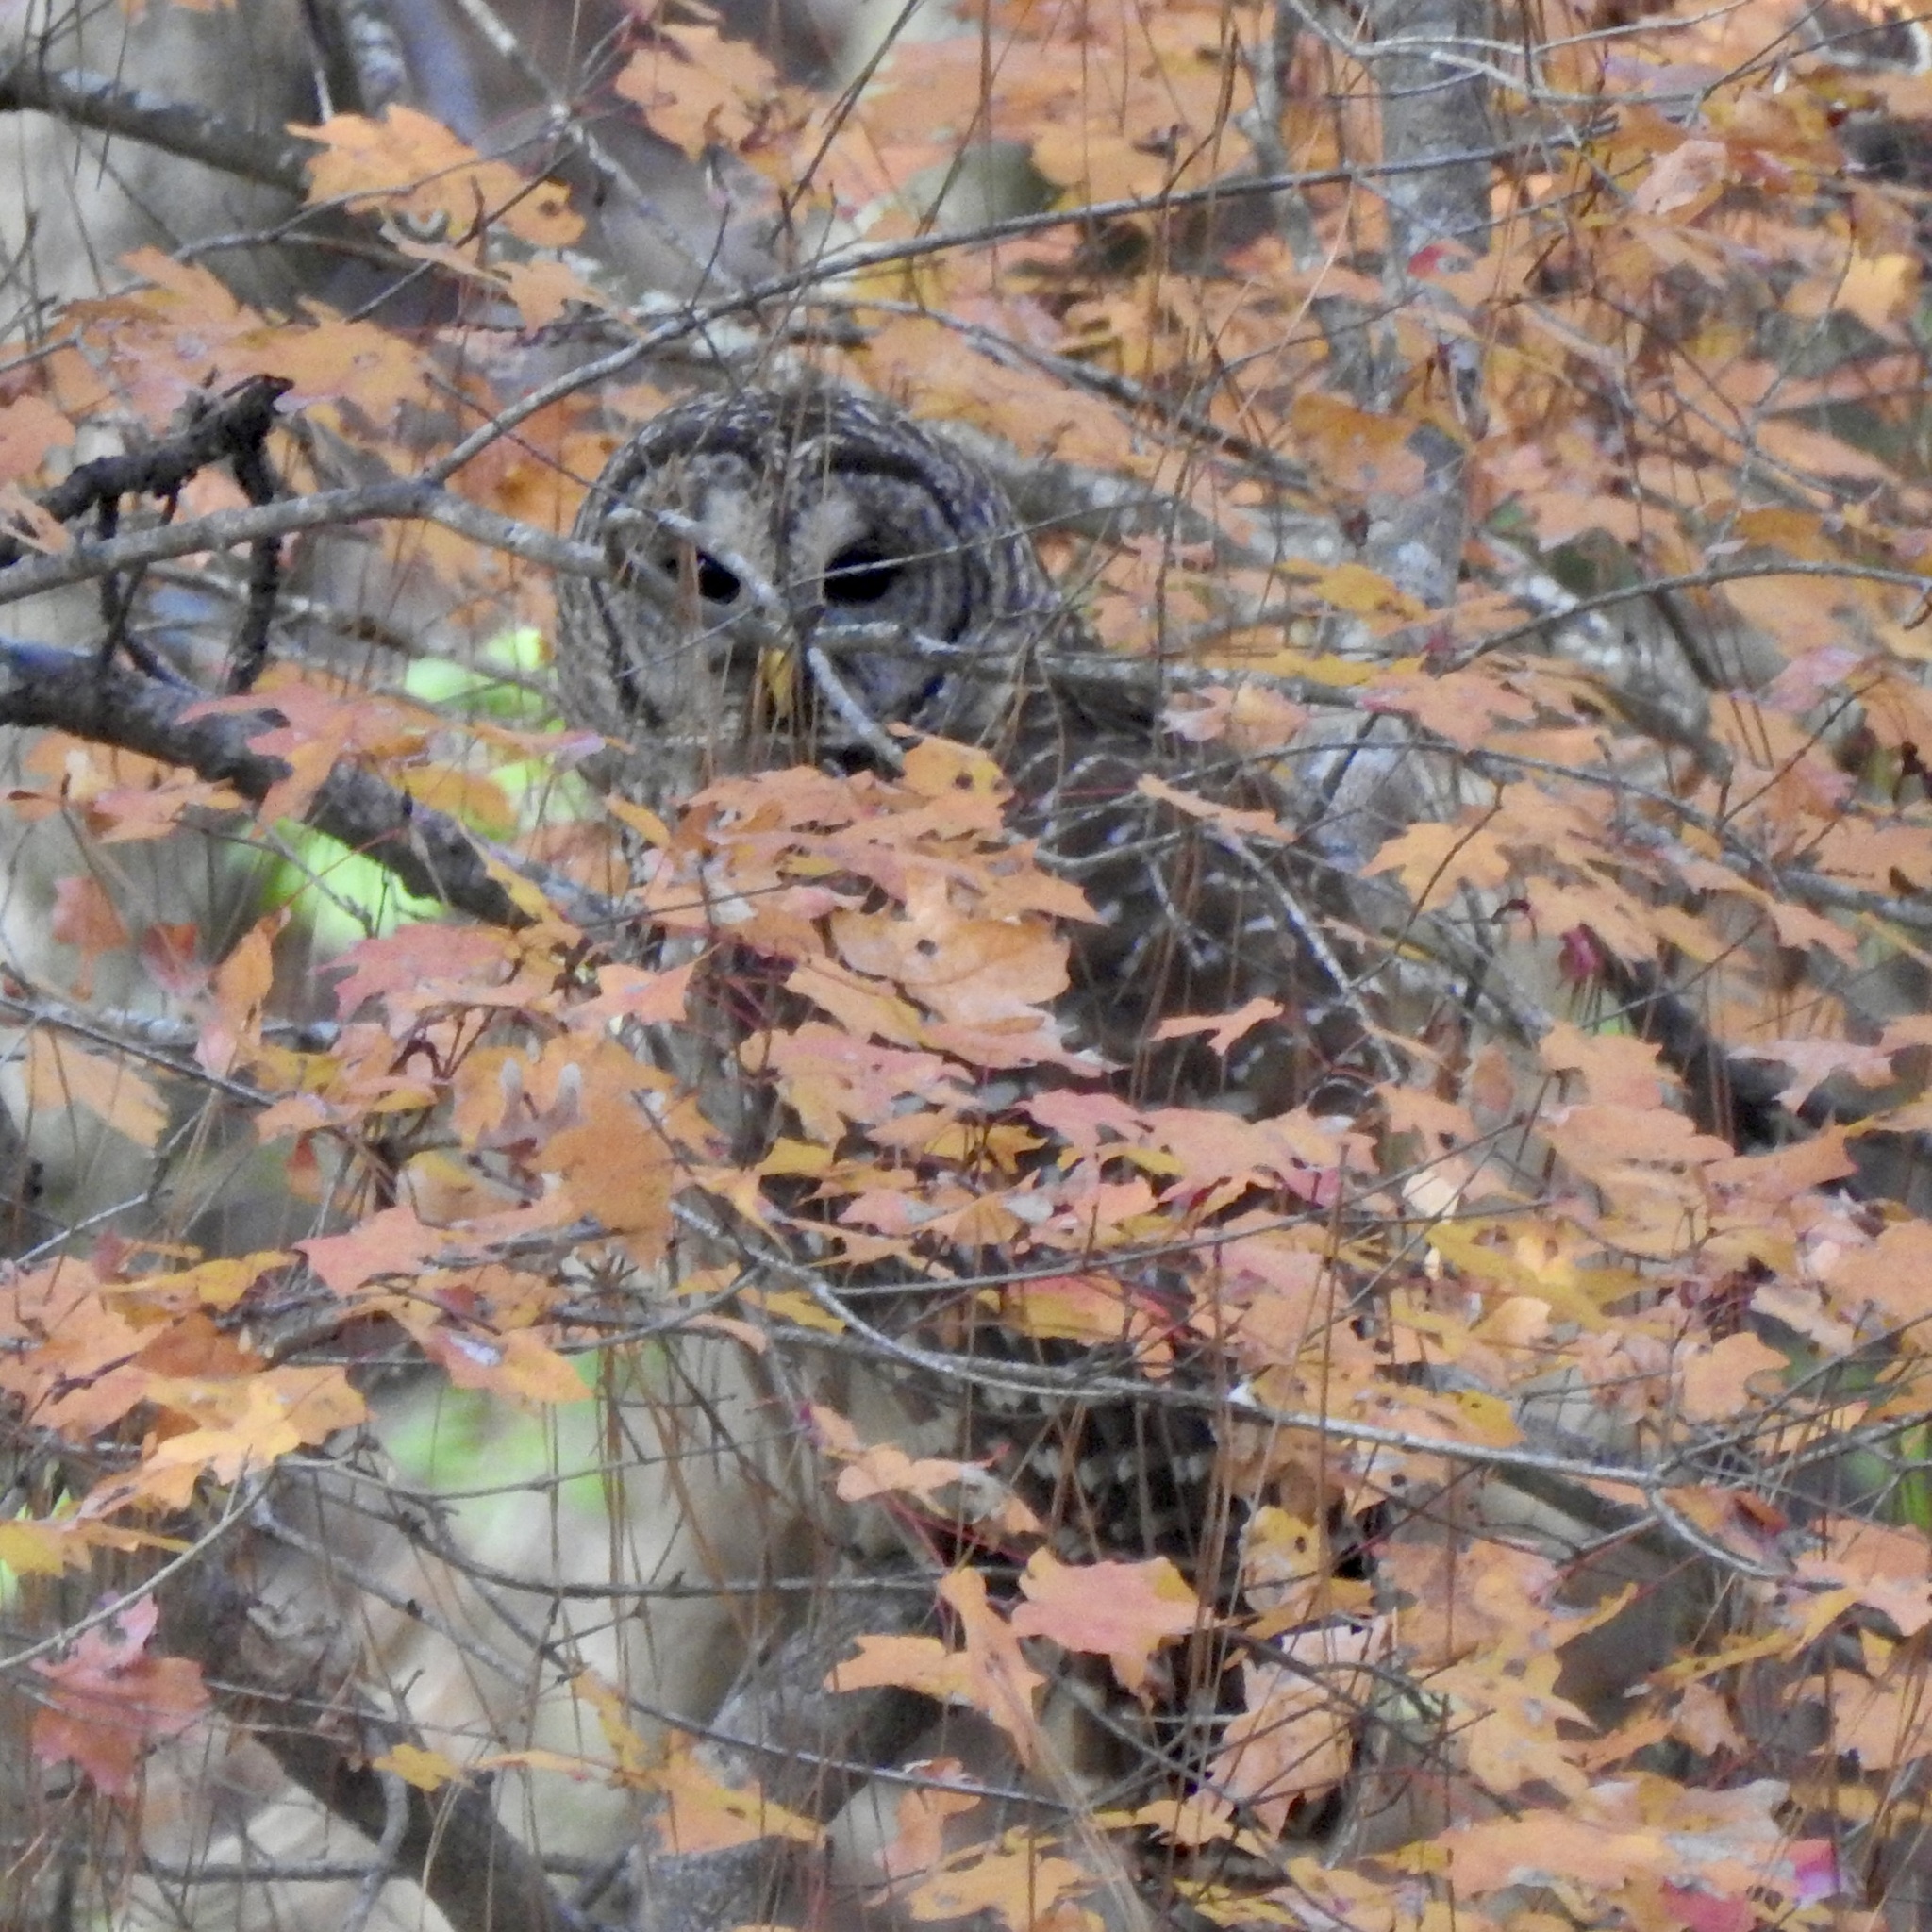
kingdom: Animalia
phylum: Chordata
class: Aves
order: Strigiformes
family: Strigidae
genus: Strix
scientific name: Strix varia
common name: Barred owl
